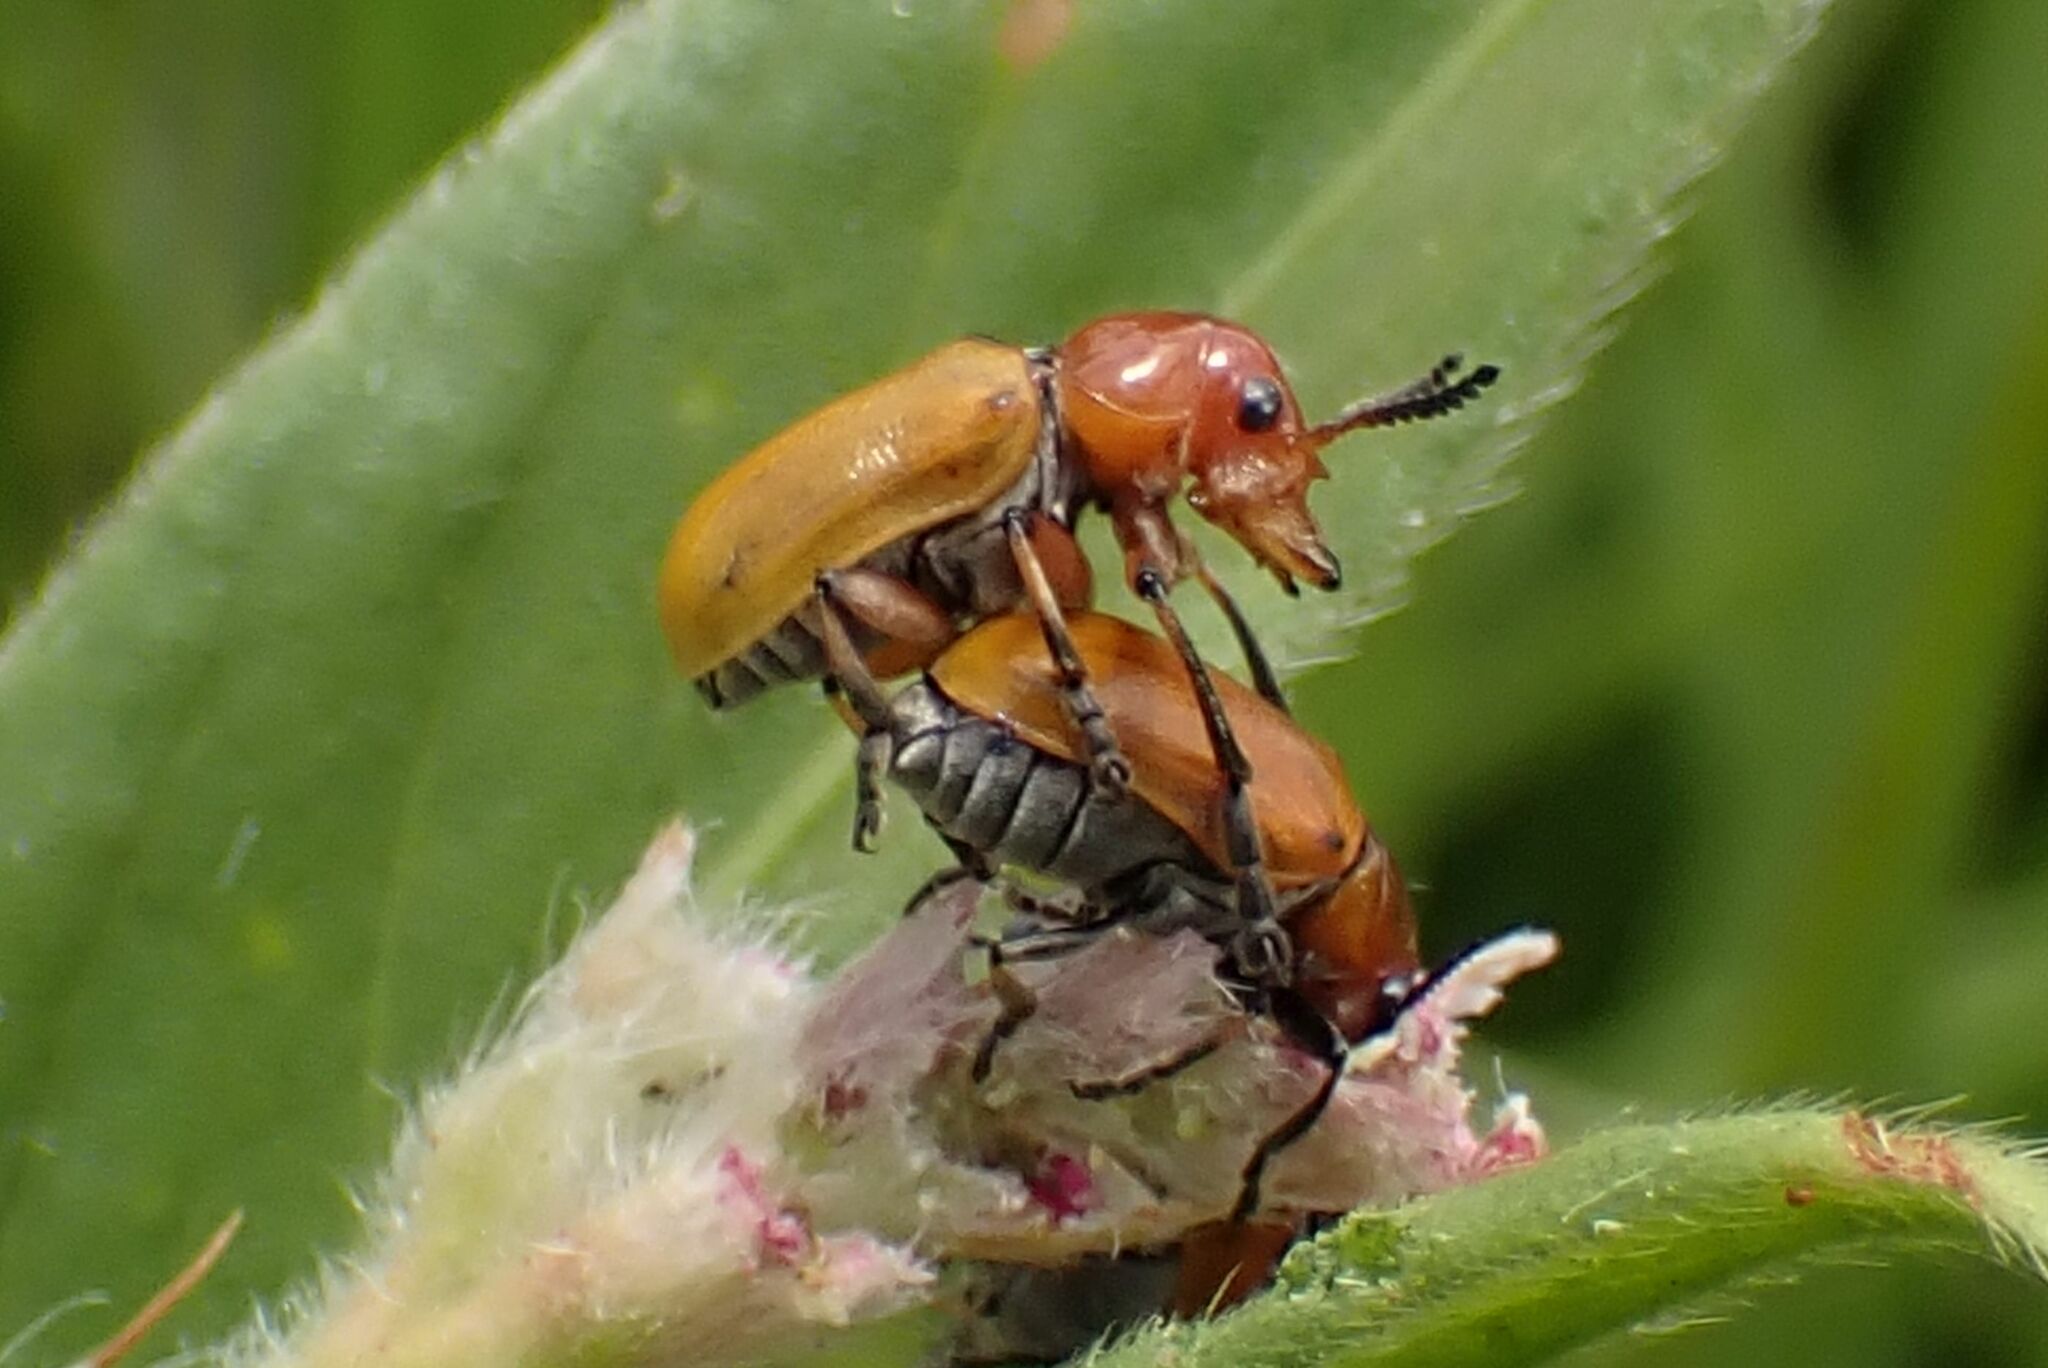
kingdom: Animalia
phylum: Arthropoda
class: Insecta
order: Coleoptera
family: Chrysomelidae
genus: Antipus
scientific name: Antipus rufus
